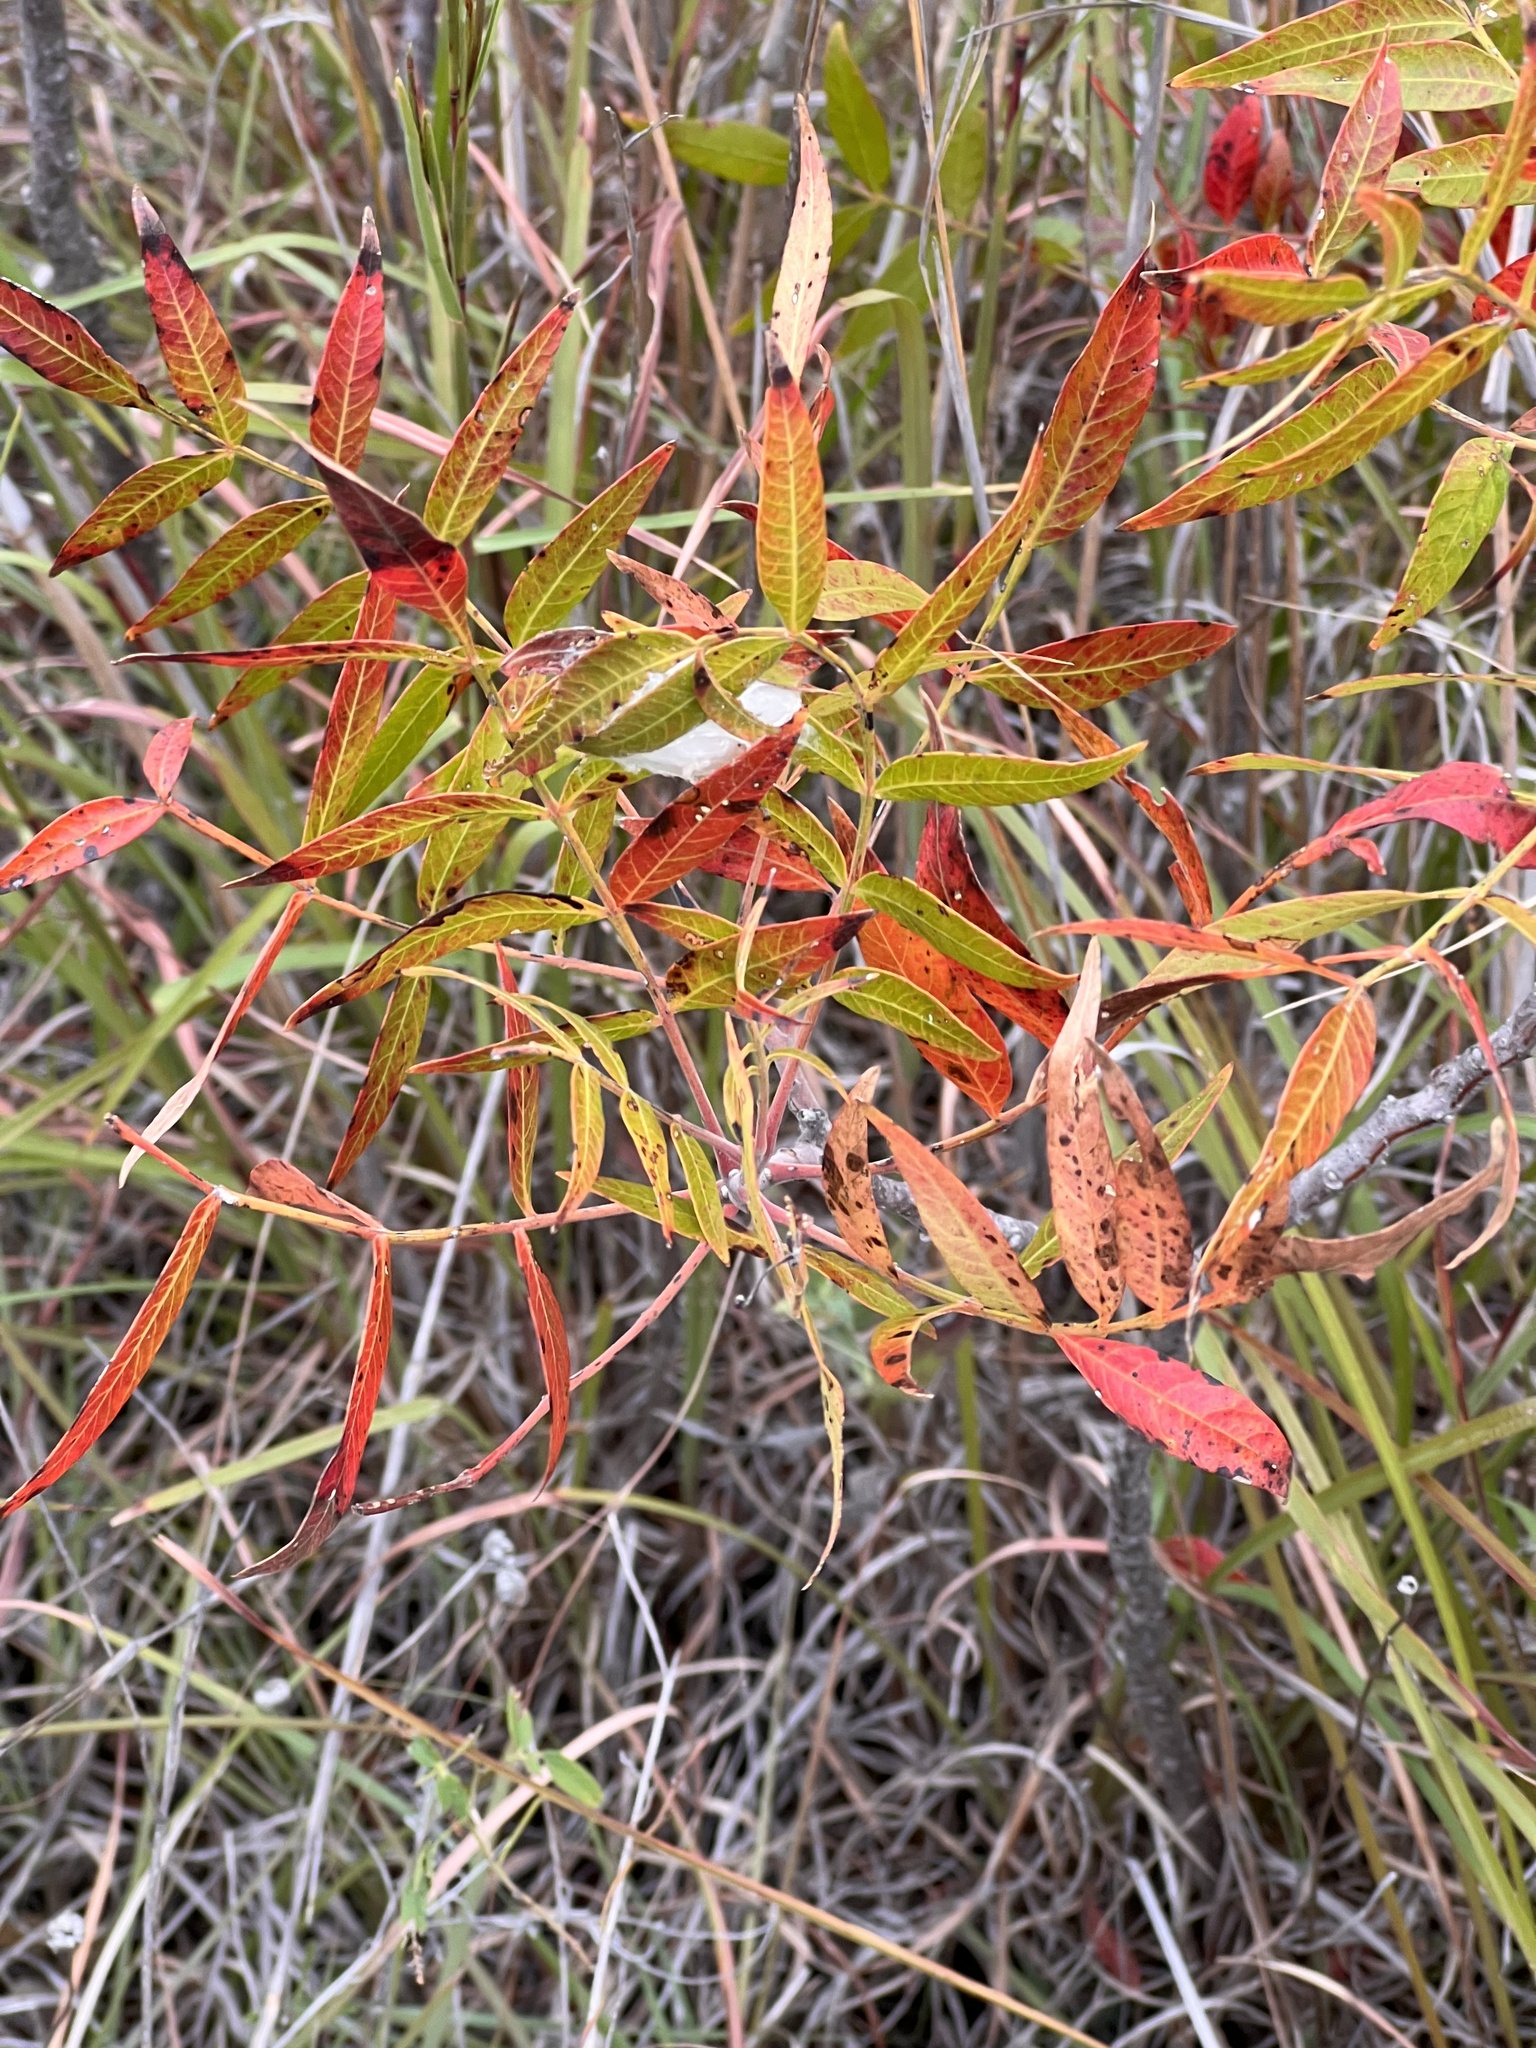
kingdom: Plantae
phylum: Tracheophyta
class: Magnoliopsida
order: Sapindales
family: Anacardiaceae
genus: Rhus
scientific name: Rhus lanceolata
